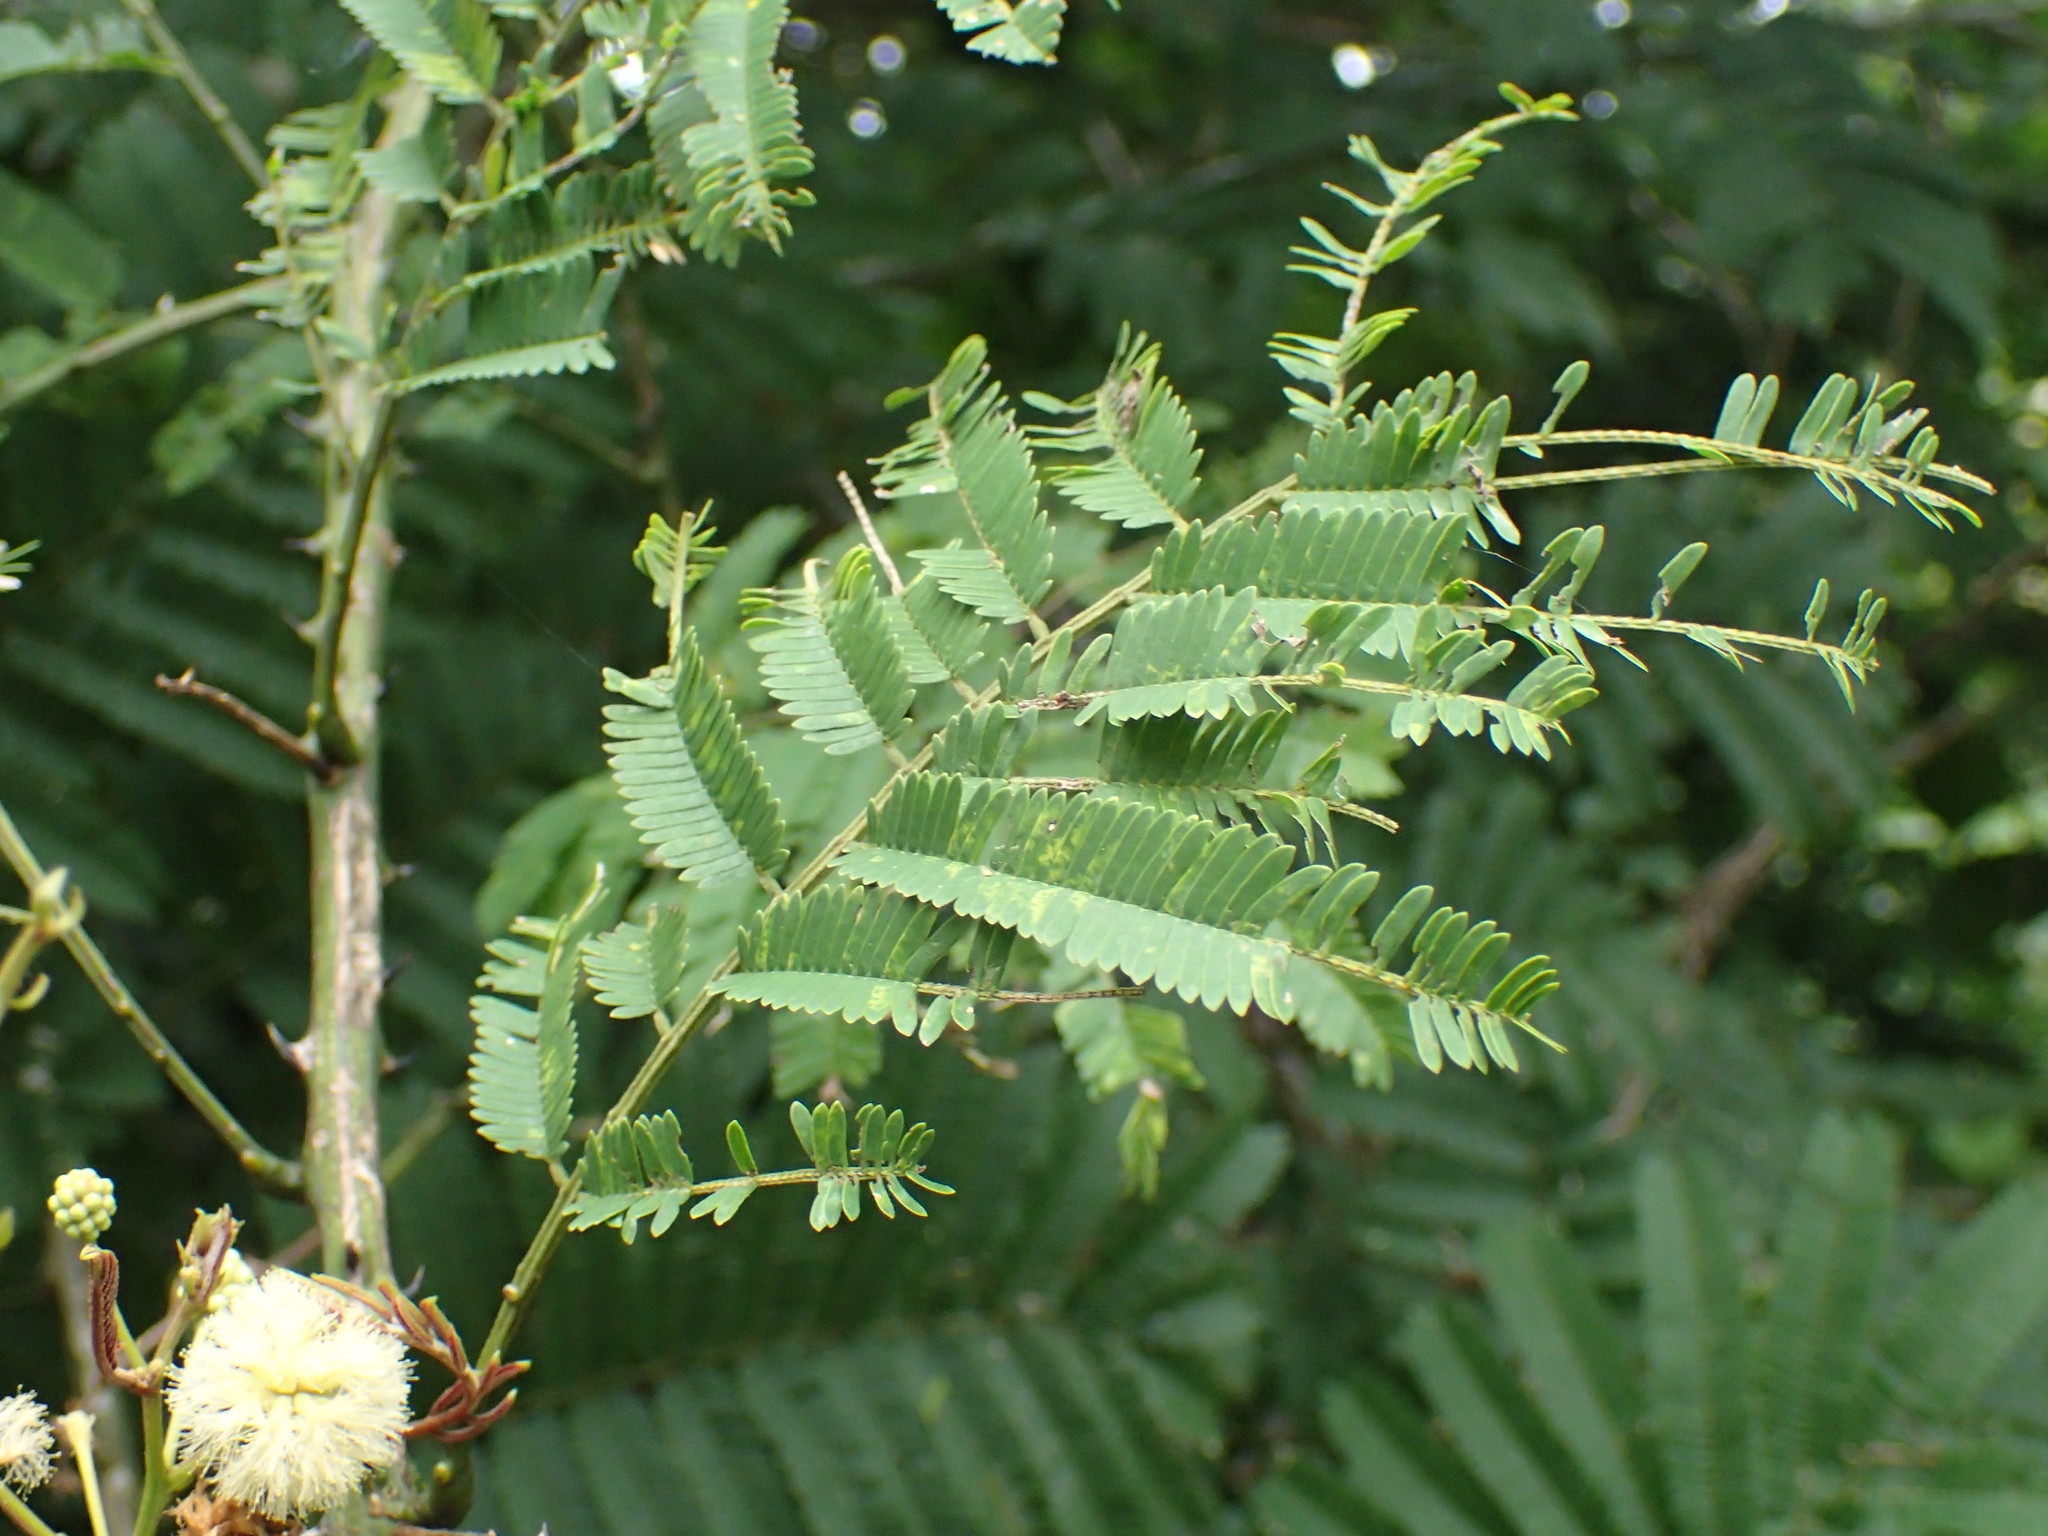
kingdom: Plantae
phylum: Tracheophyta
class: Magnoliopsida
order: Fabales
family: Fabaceae
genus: Senegalia
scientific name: Senegalia schweinfurthii
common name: River climbing acacia
